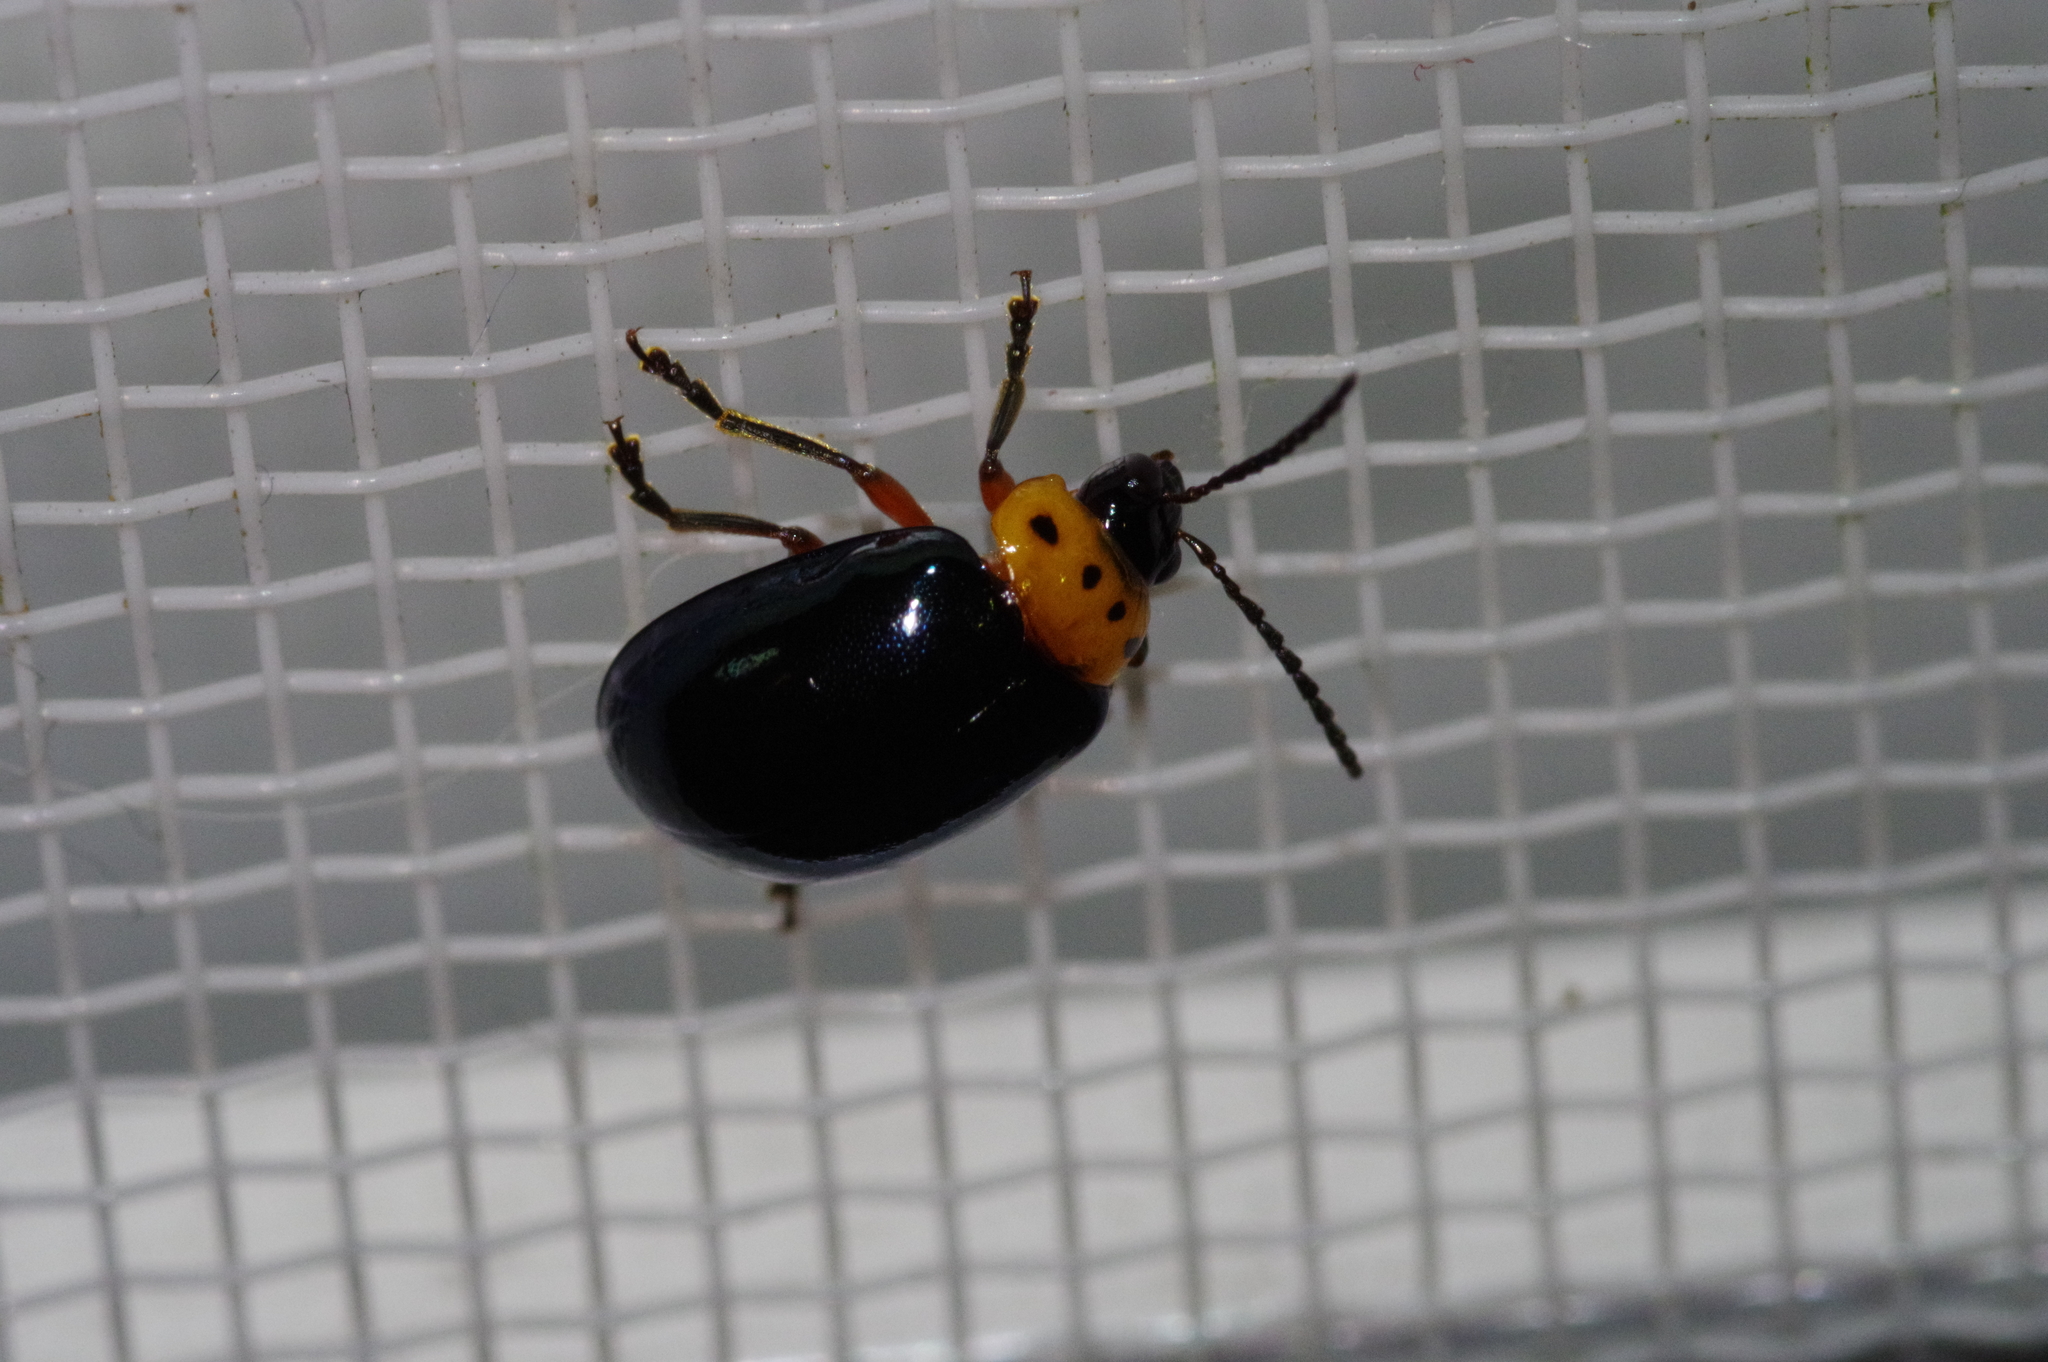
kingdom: Animalia
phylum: Arthropoda
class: Insecta
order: Coleoptera
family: Chrysomelidae
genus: Morphosphaera
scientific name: Morphosphaera caerulea
